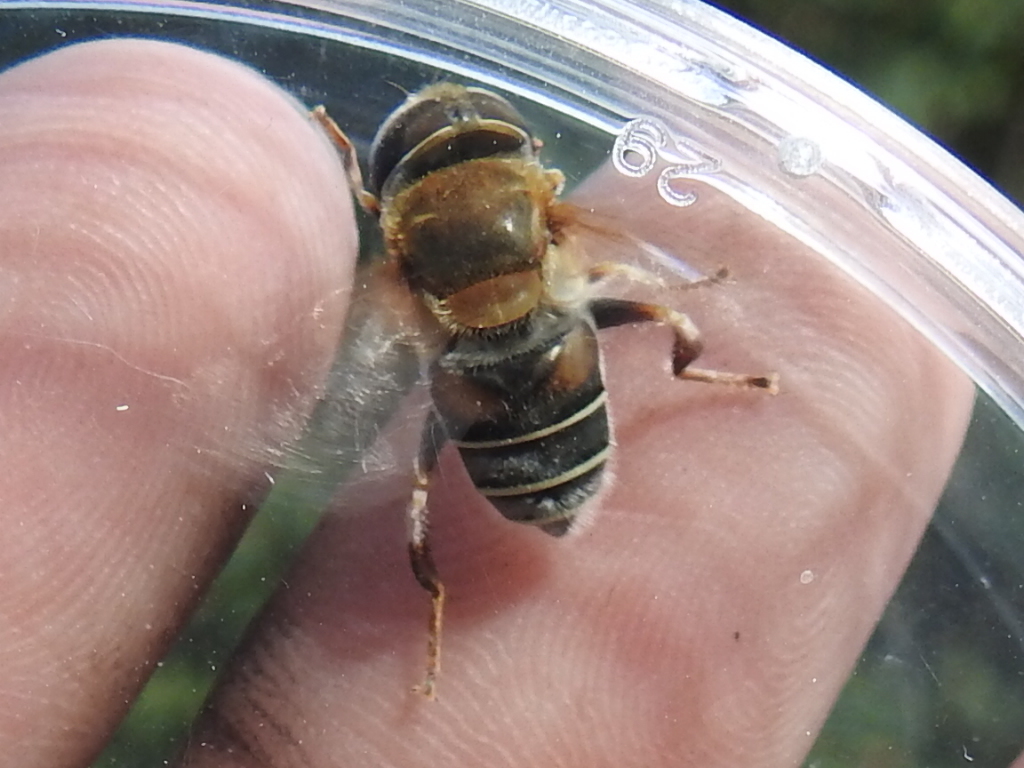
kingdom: Animalia
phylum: Arthropoda
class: Insecta
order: Diptera
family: Syrphidae
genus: Palpada
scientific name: Palpada mexicana
